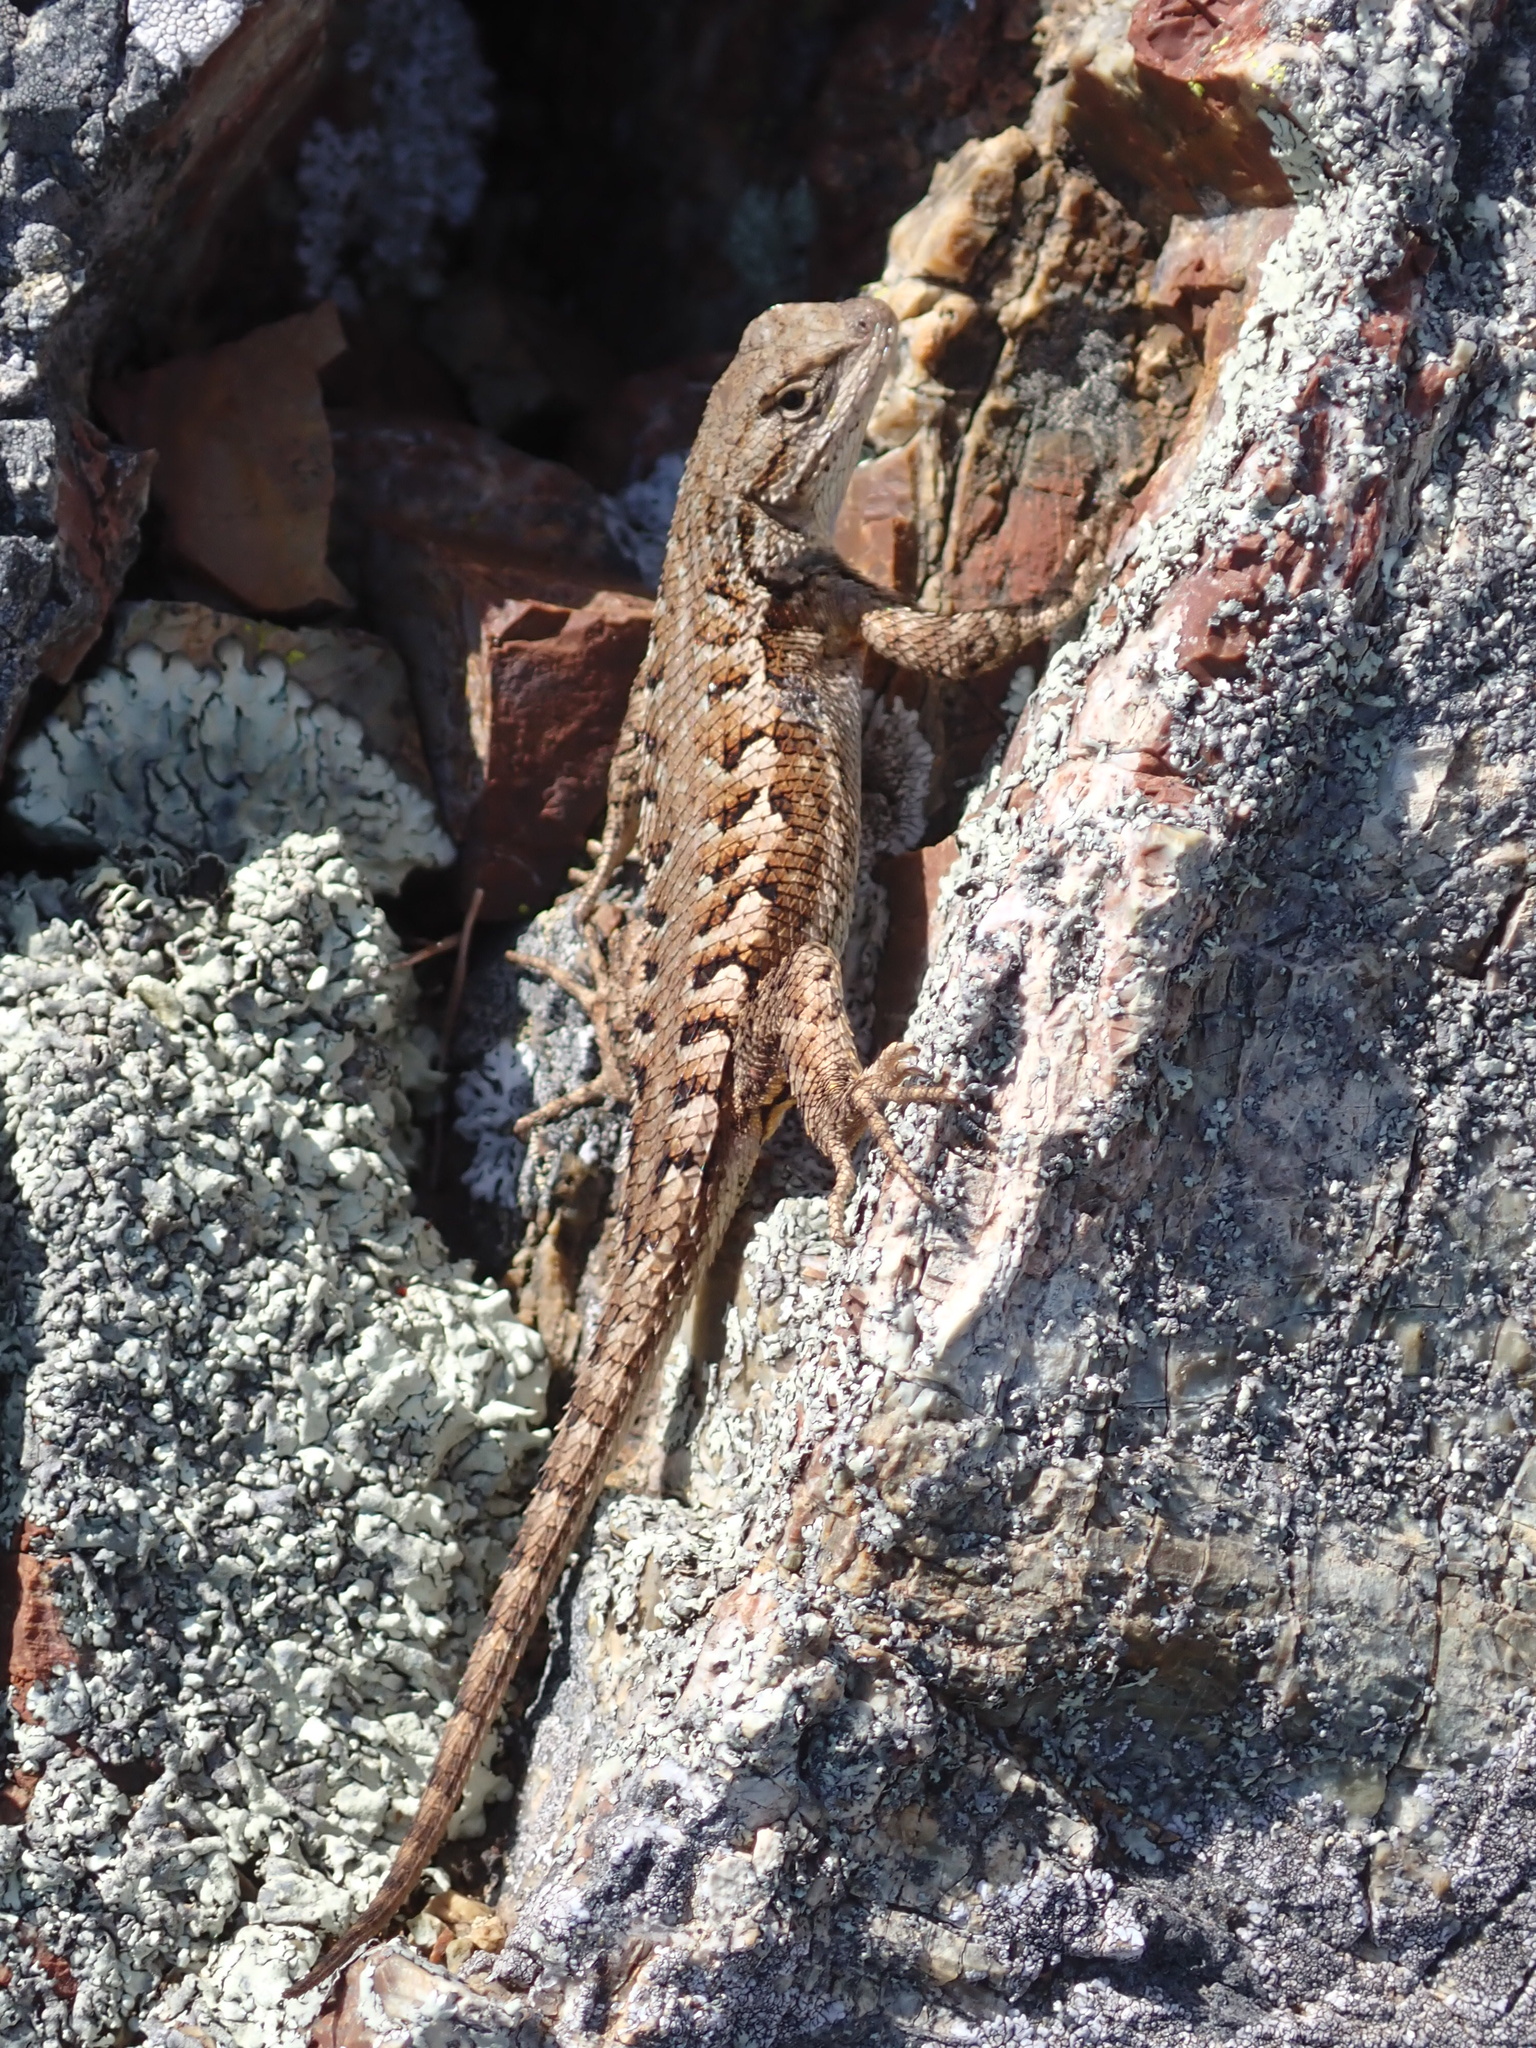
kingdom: Animalia
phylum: Chordata
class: Squamata
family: Phrynosomatidae
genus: Sceloporus
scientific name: Sceloporus occidentalis
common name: Western fence lizard
